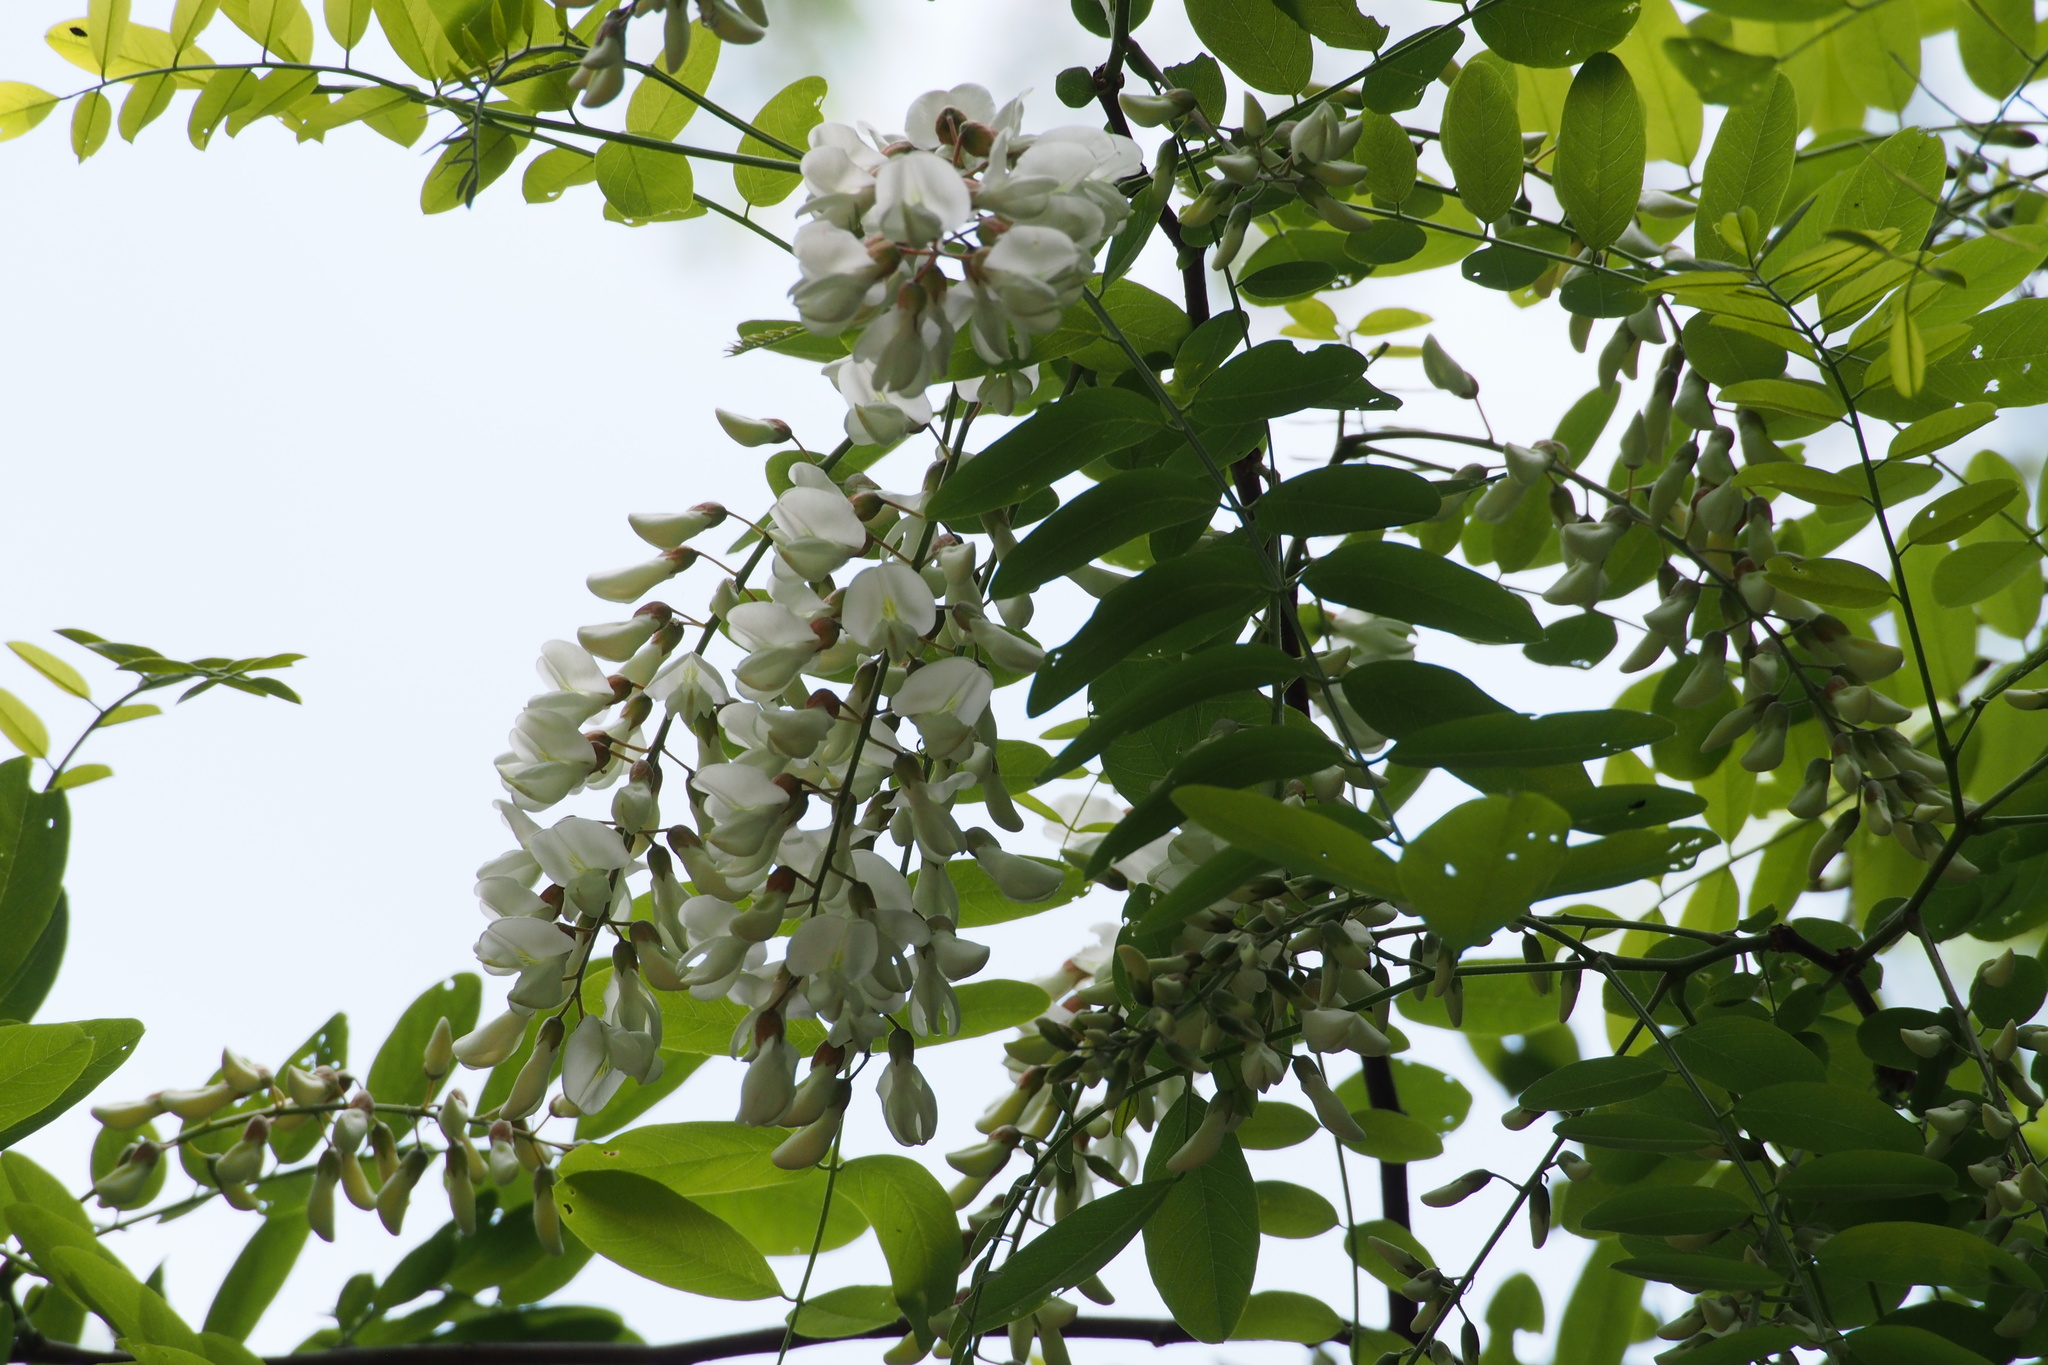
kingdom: Plantae
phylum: Tracheophyta
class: Magnoliopsida
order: Fabales
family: Fabaceae
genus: Robinia
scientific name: Robinia pseudoacacia
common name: Black locust
